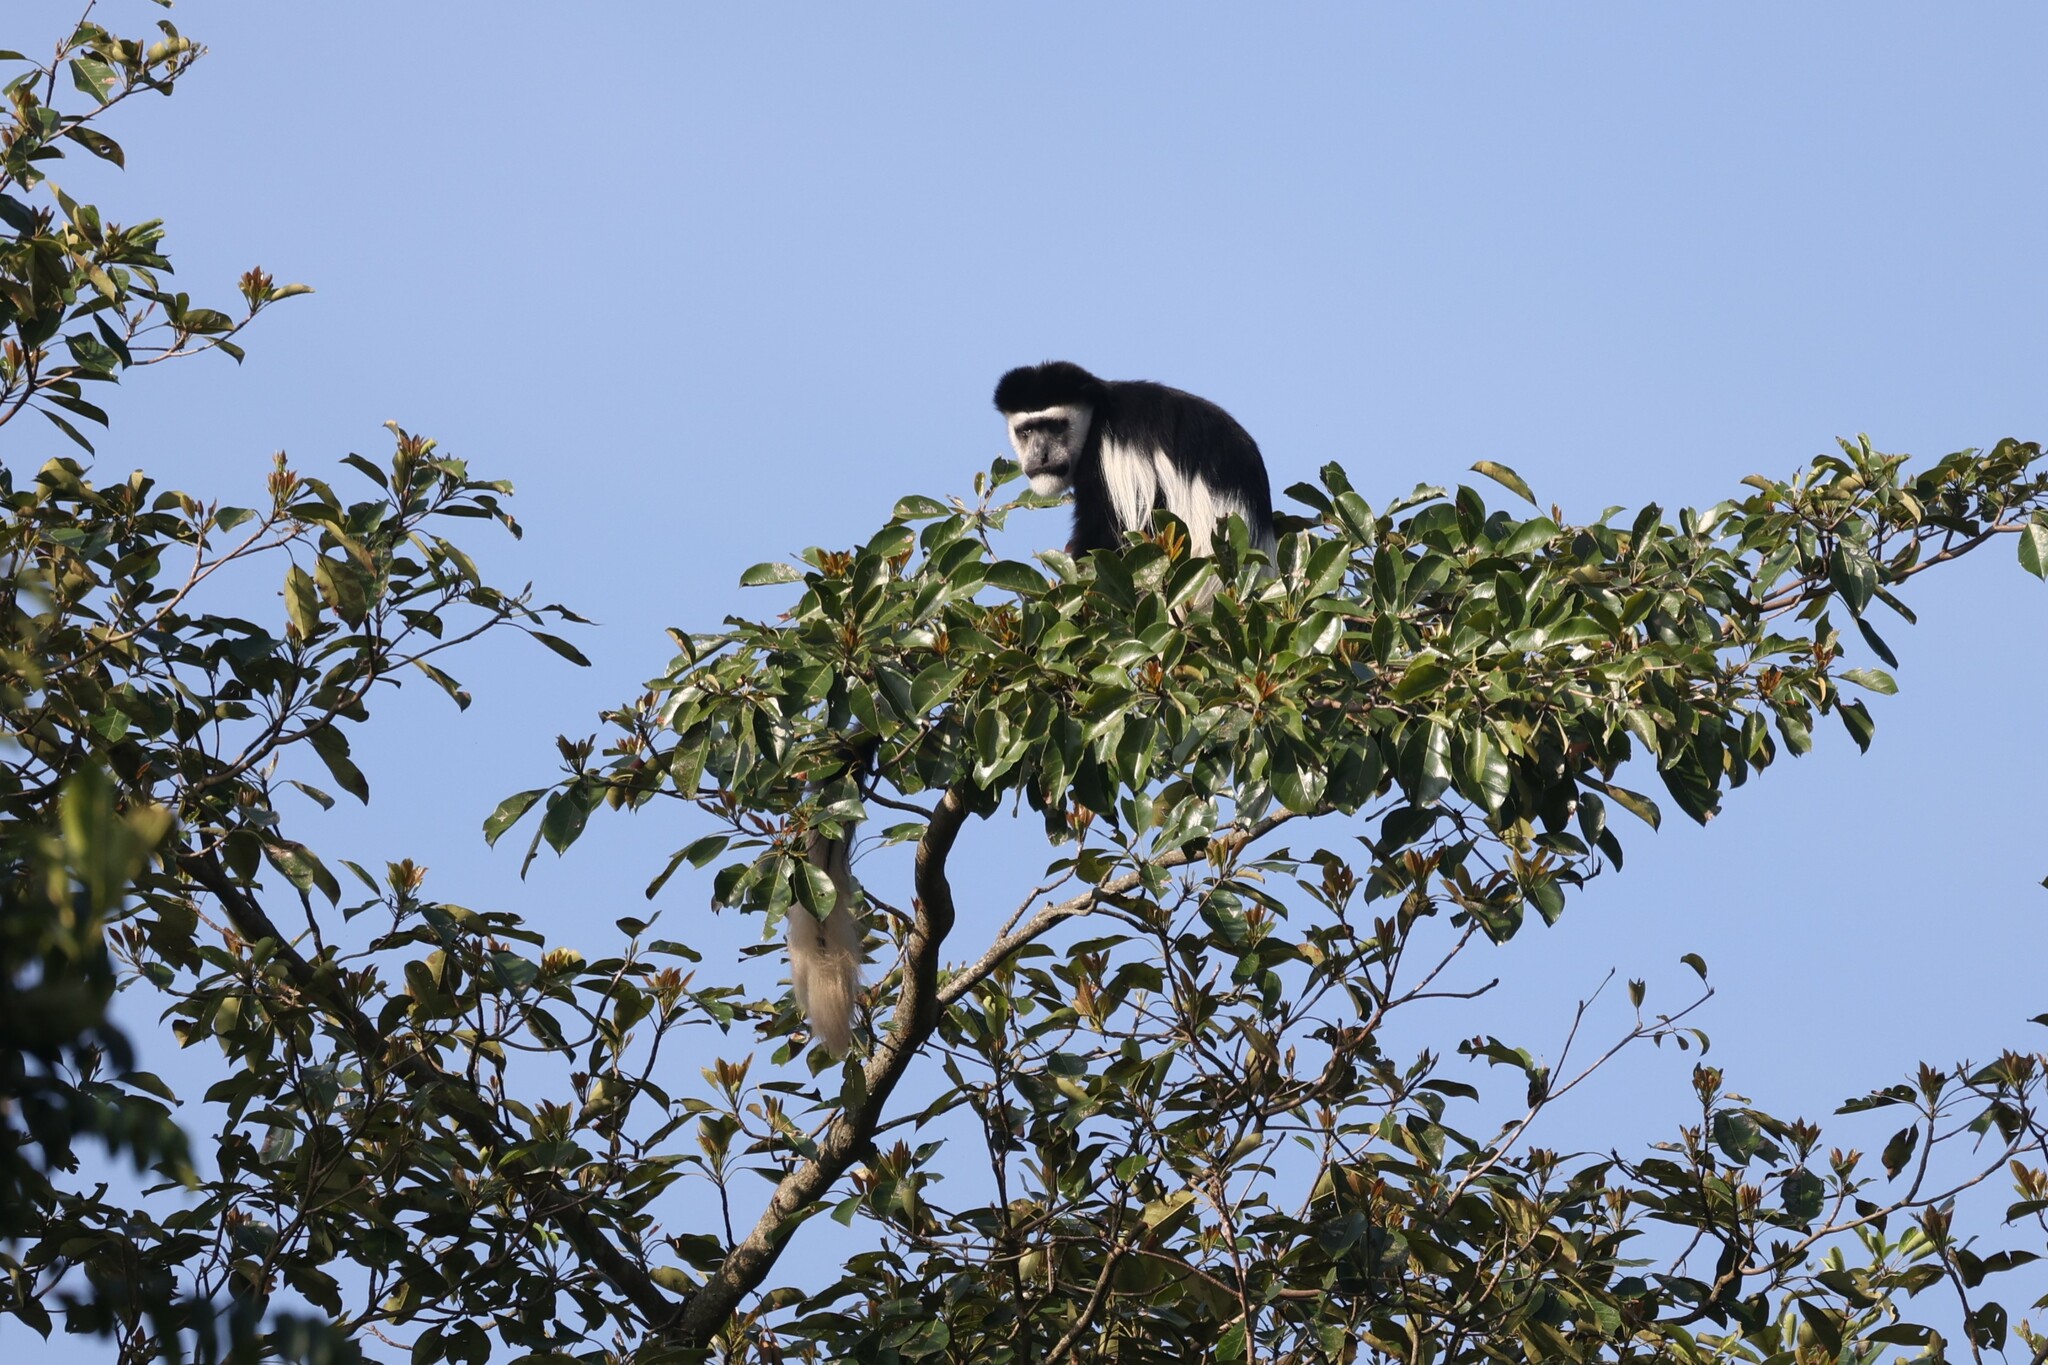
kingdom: Animalia
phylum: Chordata
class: Mammalia
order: Primates
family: Cercopithecidae
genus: Colobus
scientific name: Colobus guereza
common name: Mantled guereza
